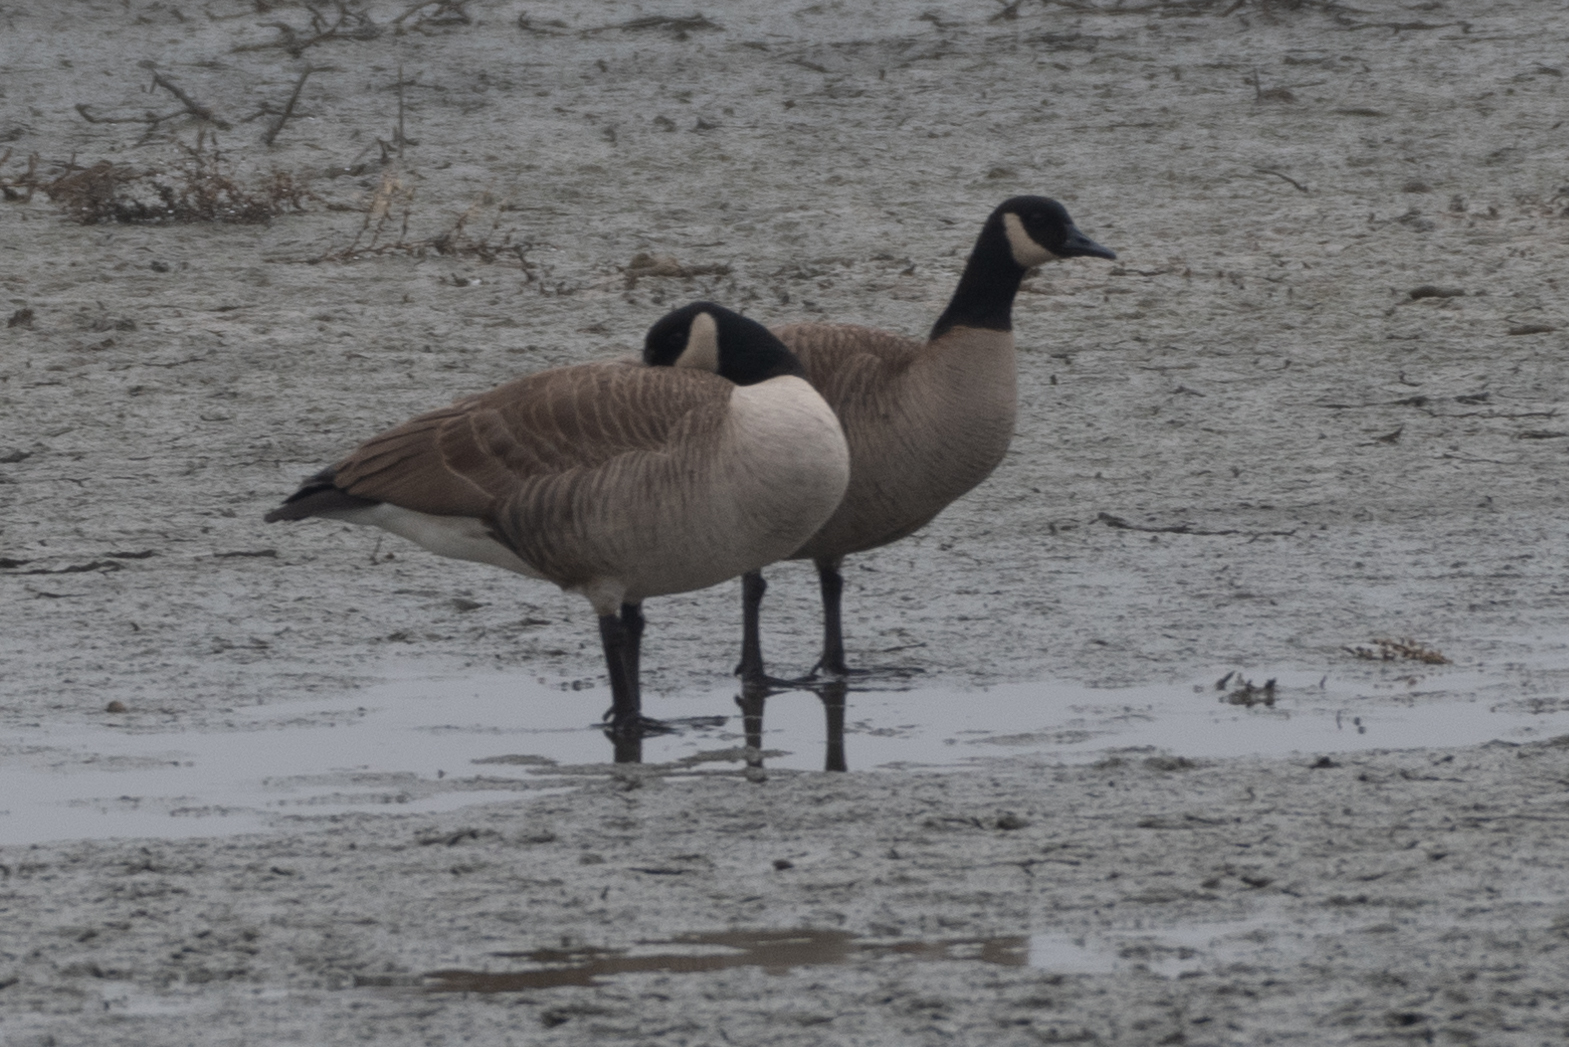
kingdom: Animalia
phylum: Chordata
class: Aves
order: Anseriformes
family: Anatidae
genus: Branta
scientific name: Branta canadensis
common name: Canada goose
